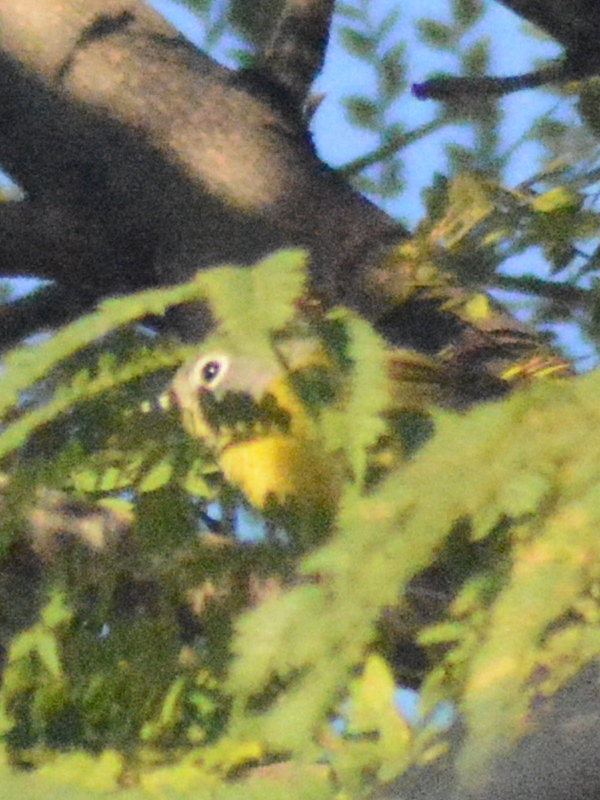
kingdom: Animalia
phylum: Chordata
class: Aves
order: Passeriformes
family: Parulidae
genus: Leiothlypis
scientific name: Leiothlypis ruficapilla
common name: Nashville warbler
